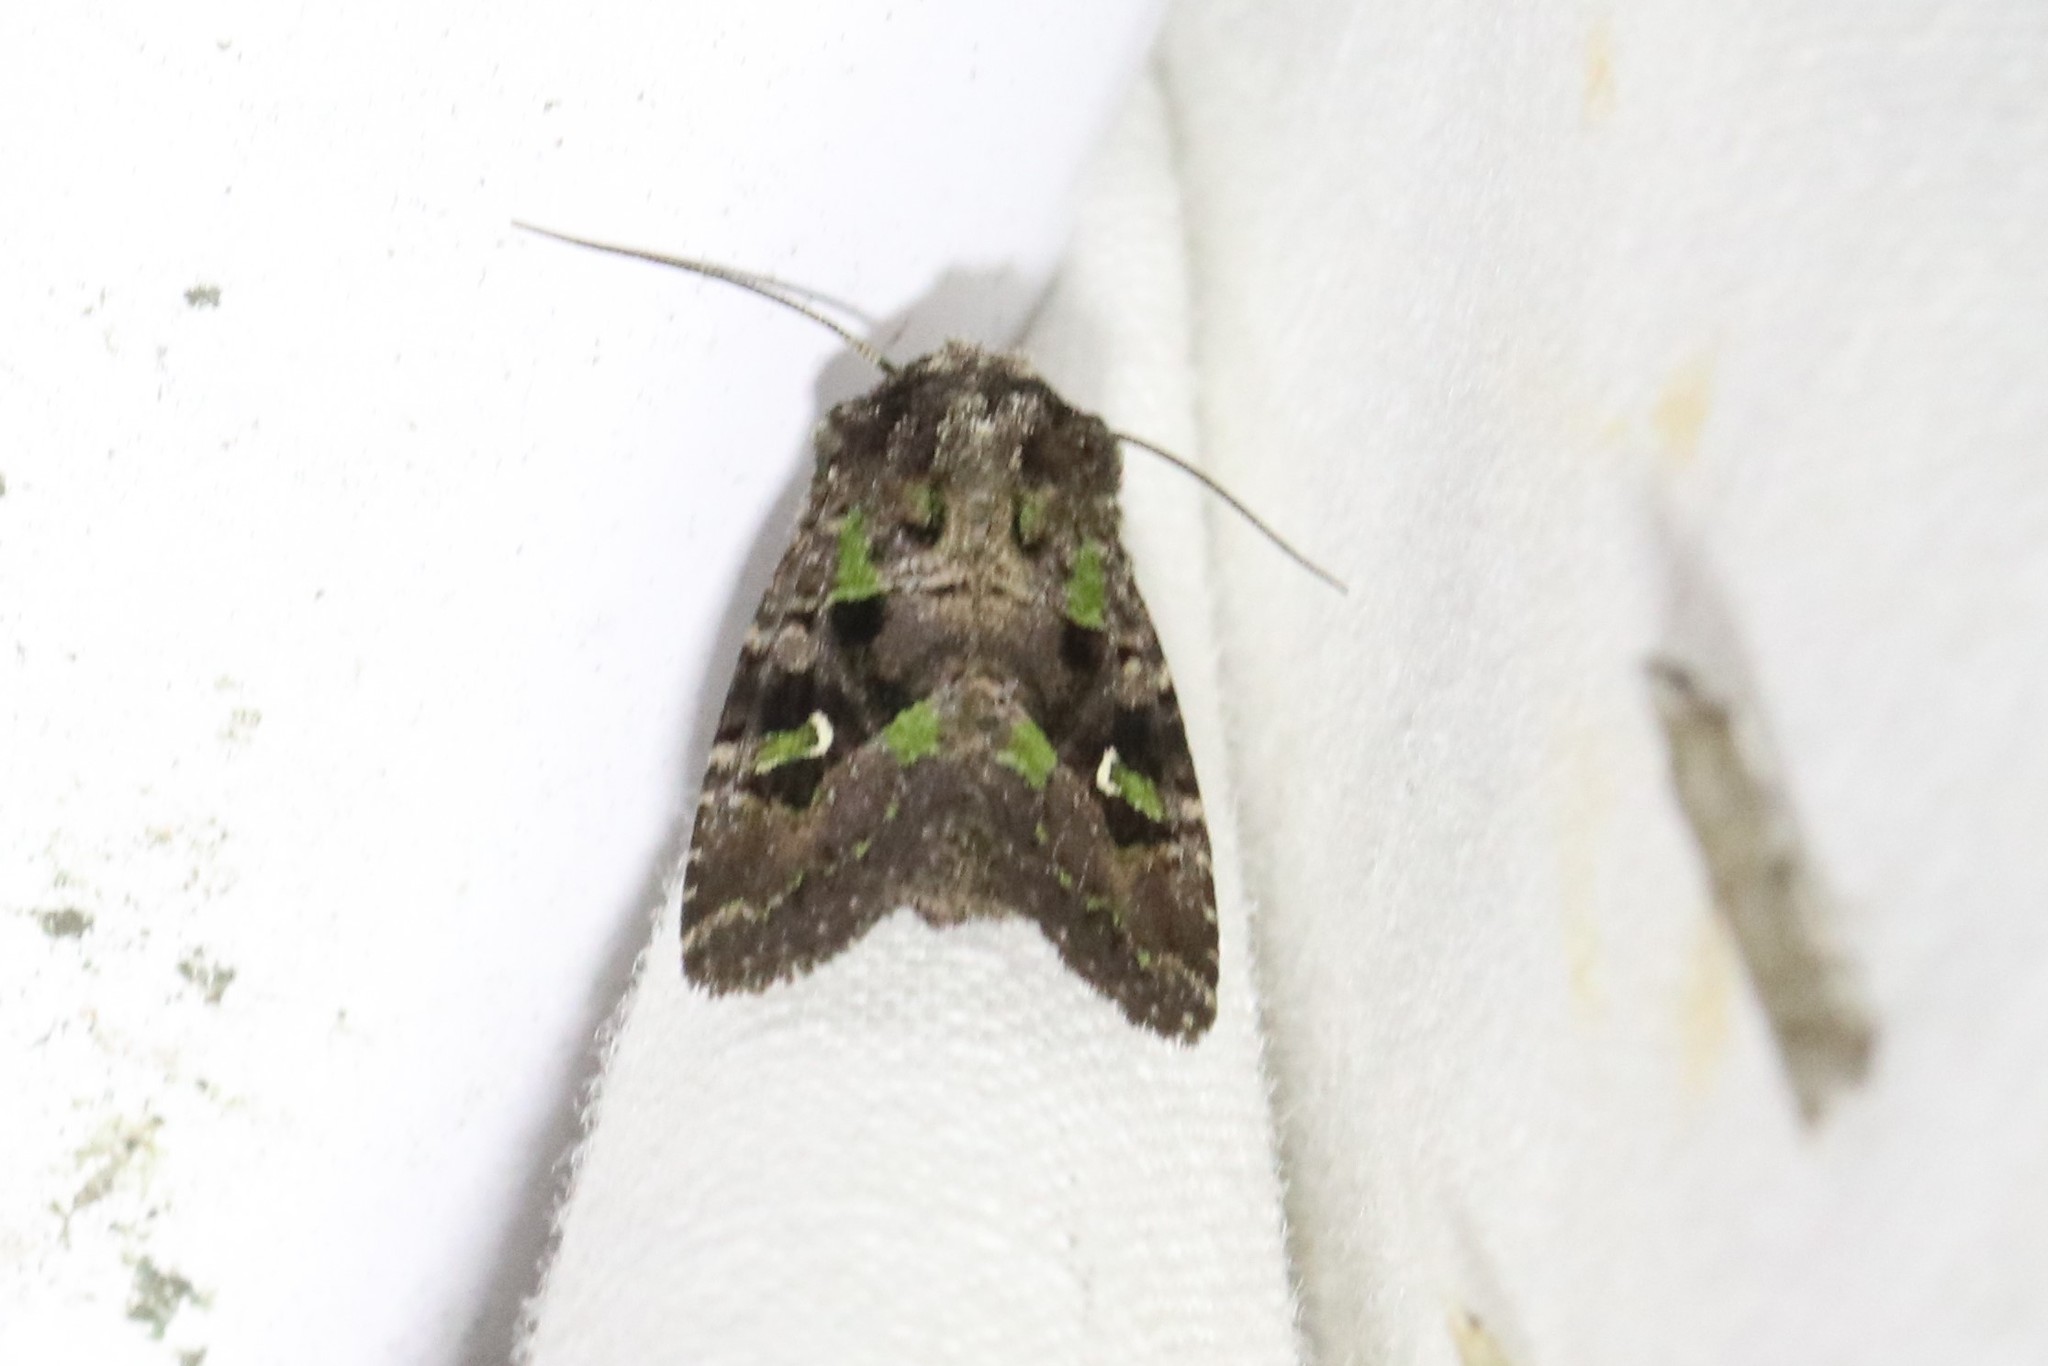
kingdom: Animalia
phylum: Arthropoda
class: Insecta
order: Lepidoptera
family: Noctuidae
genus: Lacinipolia
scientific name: Lacinipolia renigera
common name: Kidney-spotted minor
